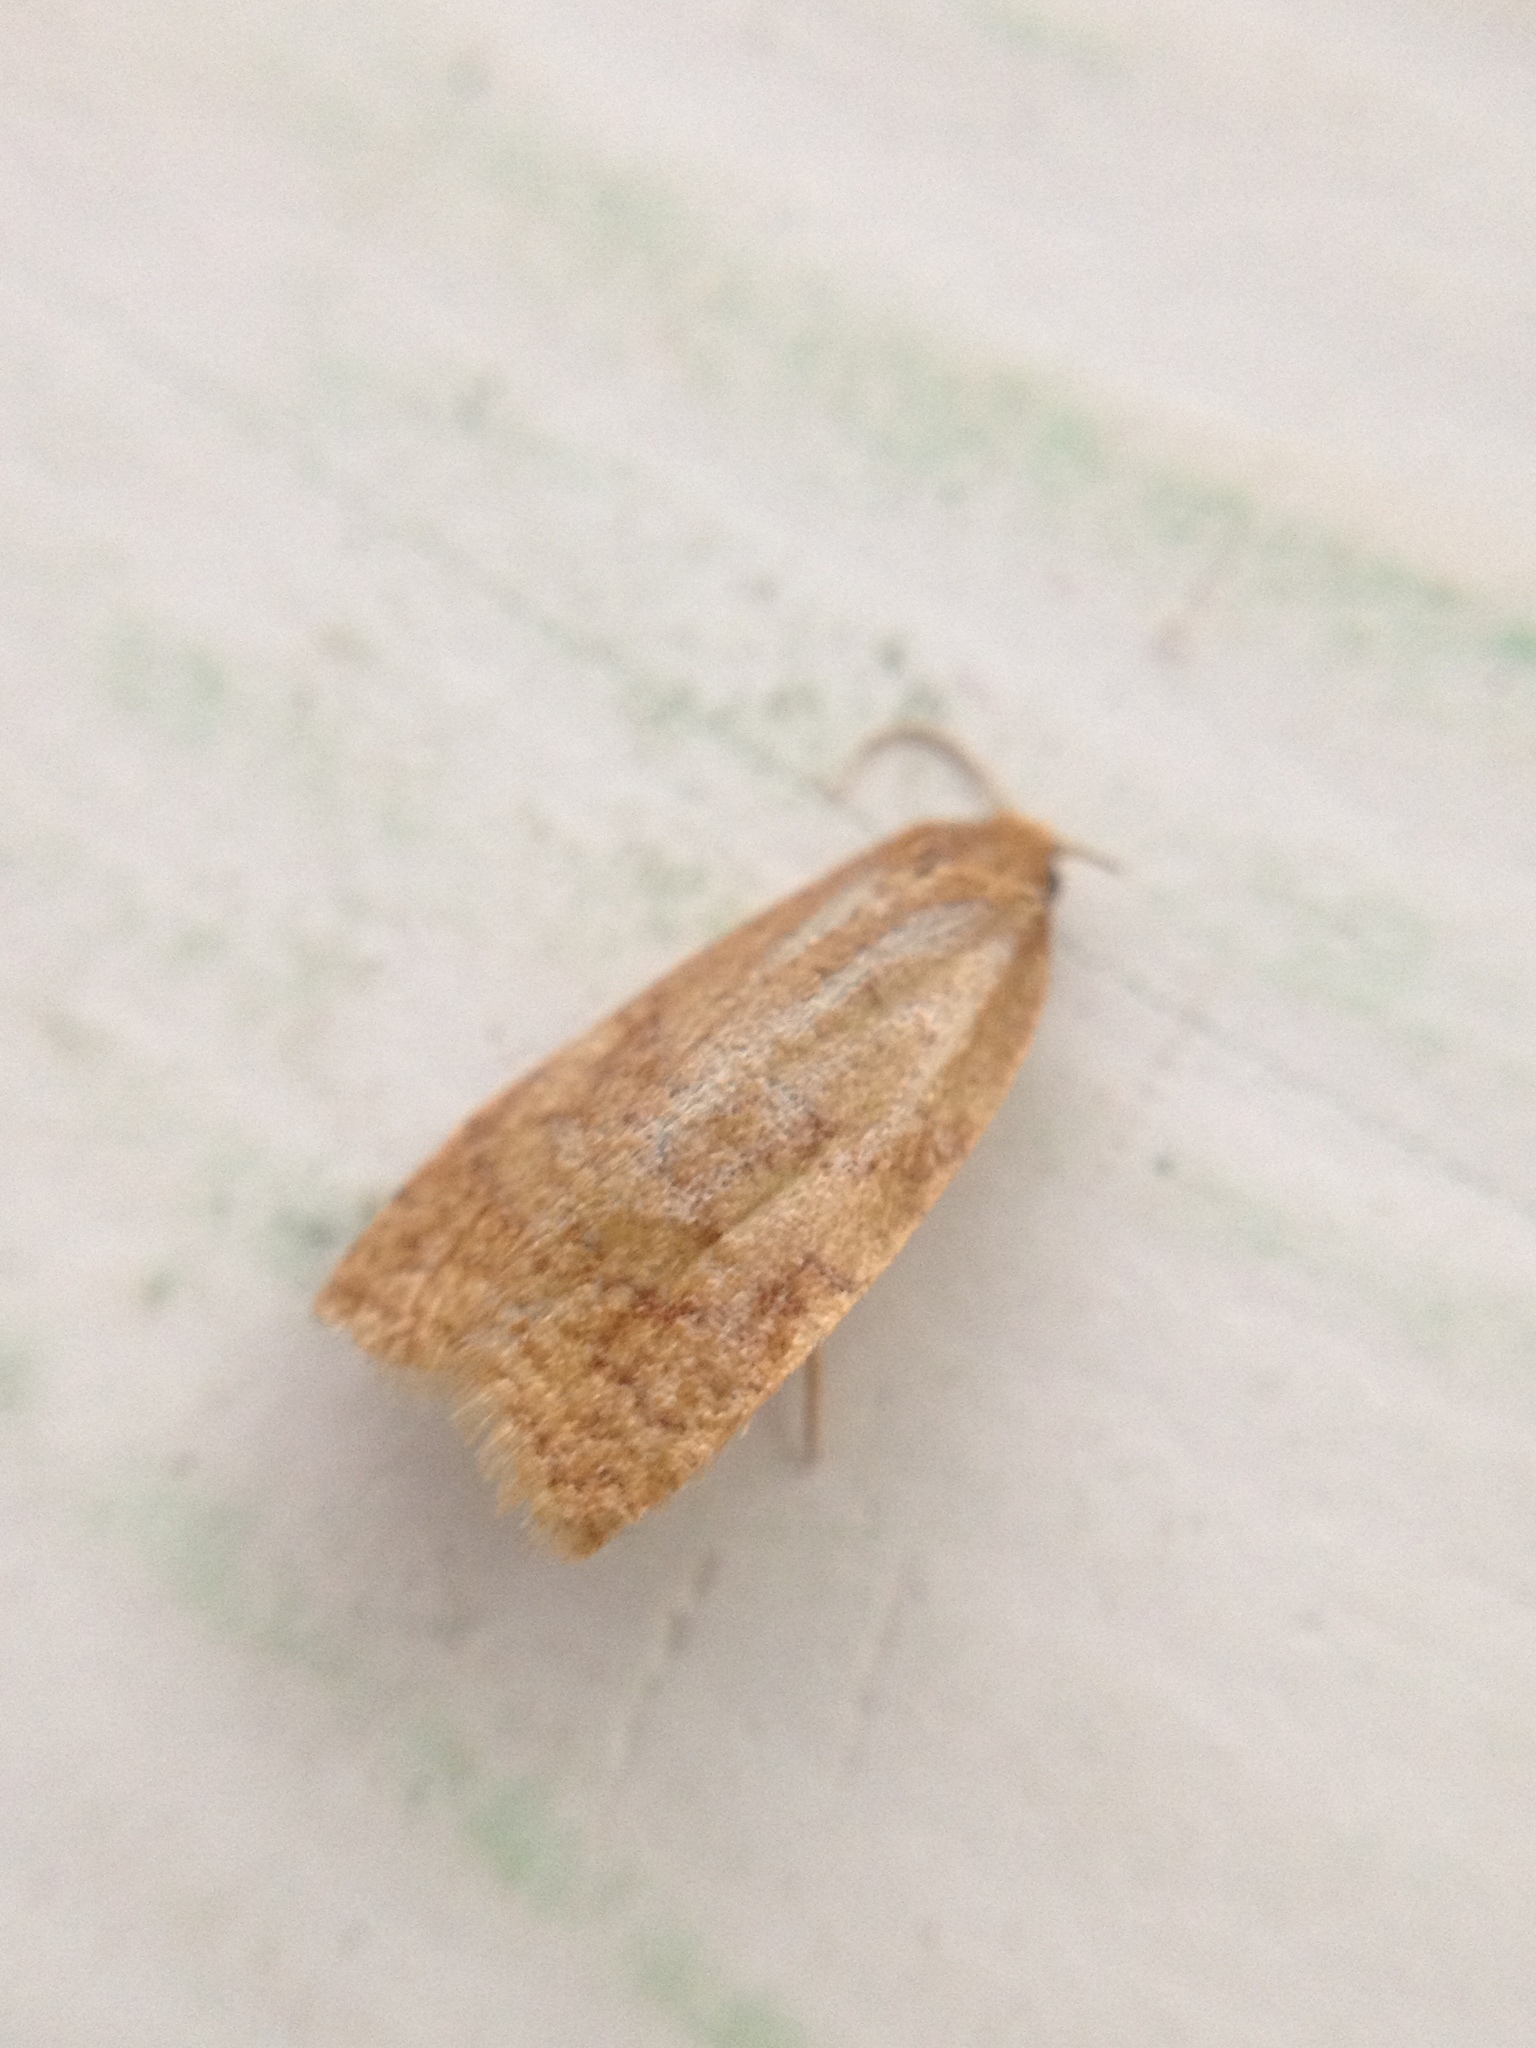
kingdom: Animalia
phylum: Arthropoda
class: Insecta
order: Lepidoptera
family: Tortricidae
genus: Adoxophyes
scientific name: Adoxophyes orana
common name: Summer fruit tortrix
